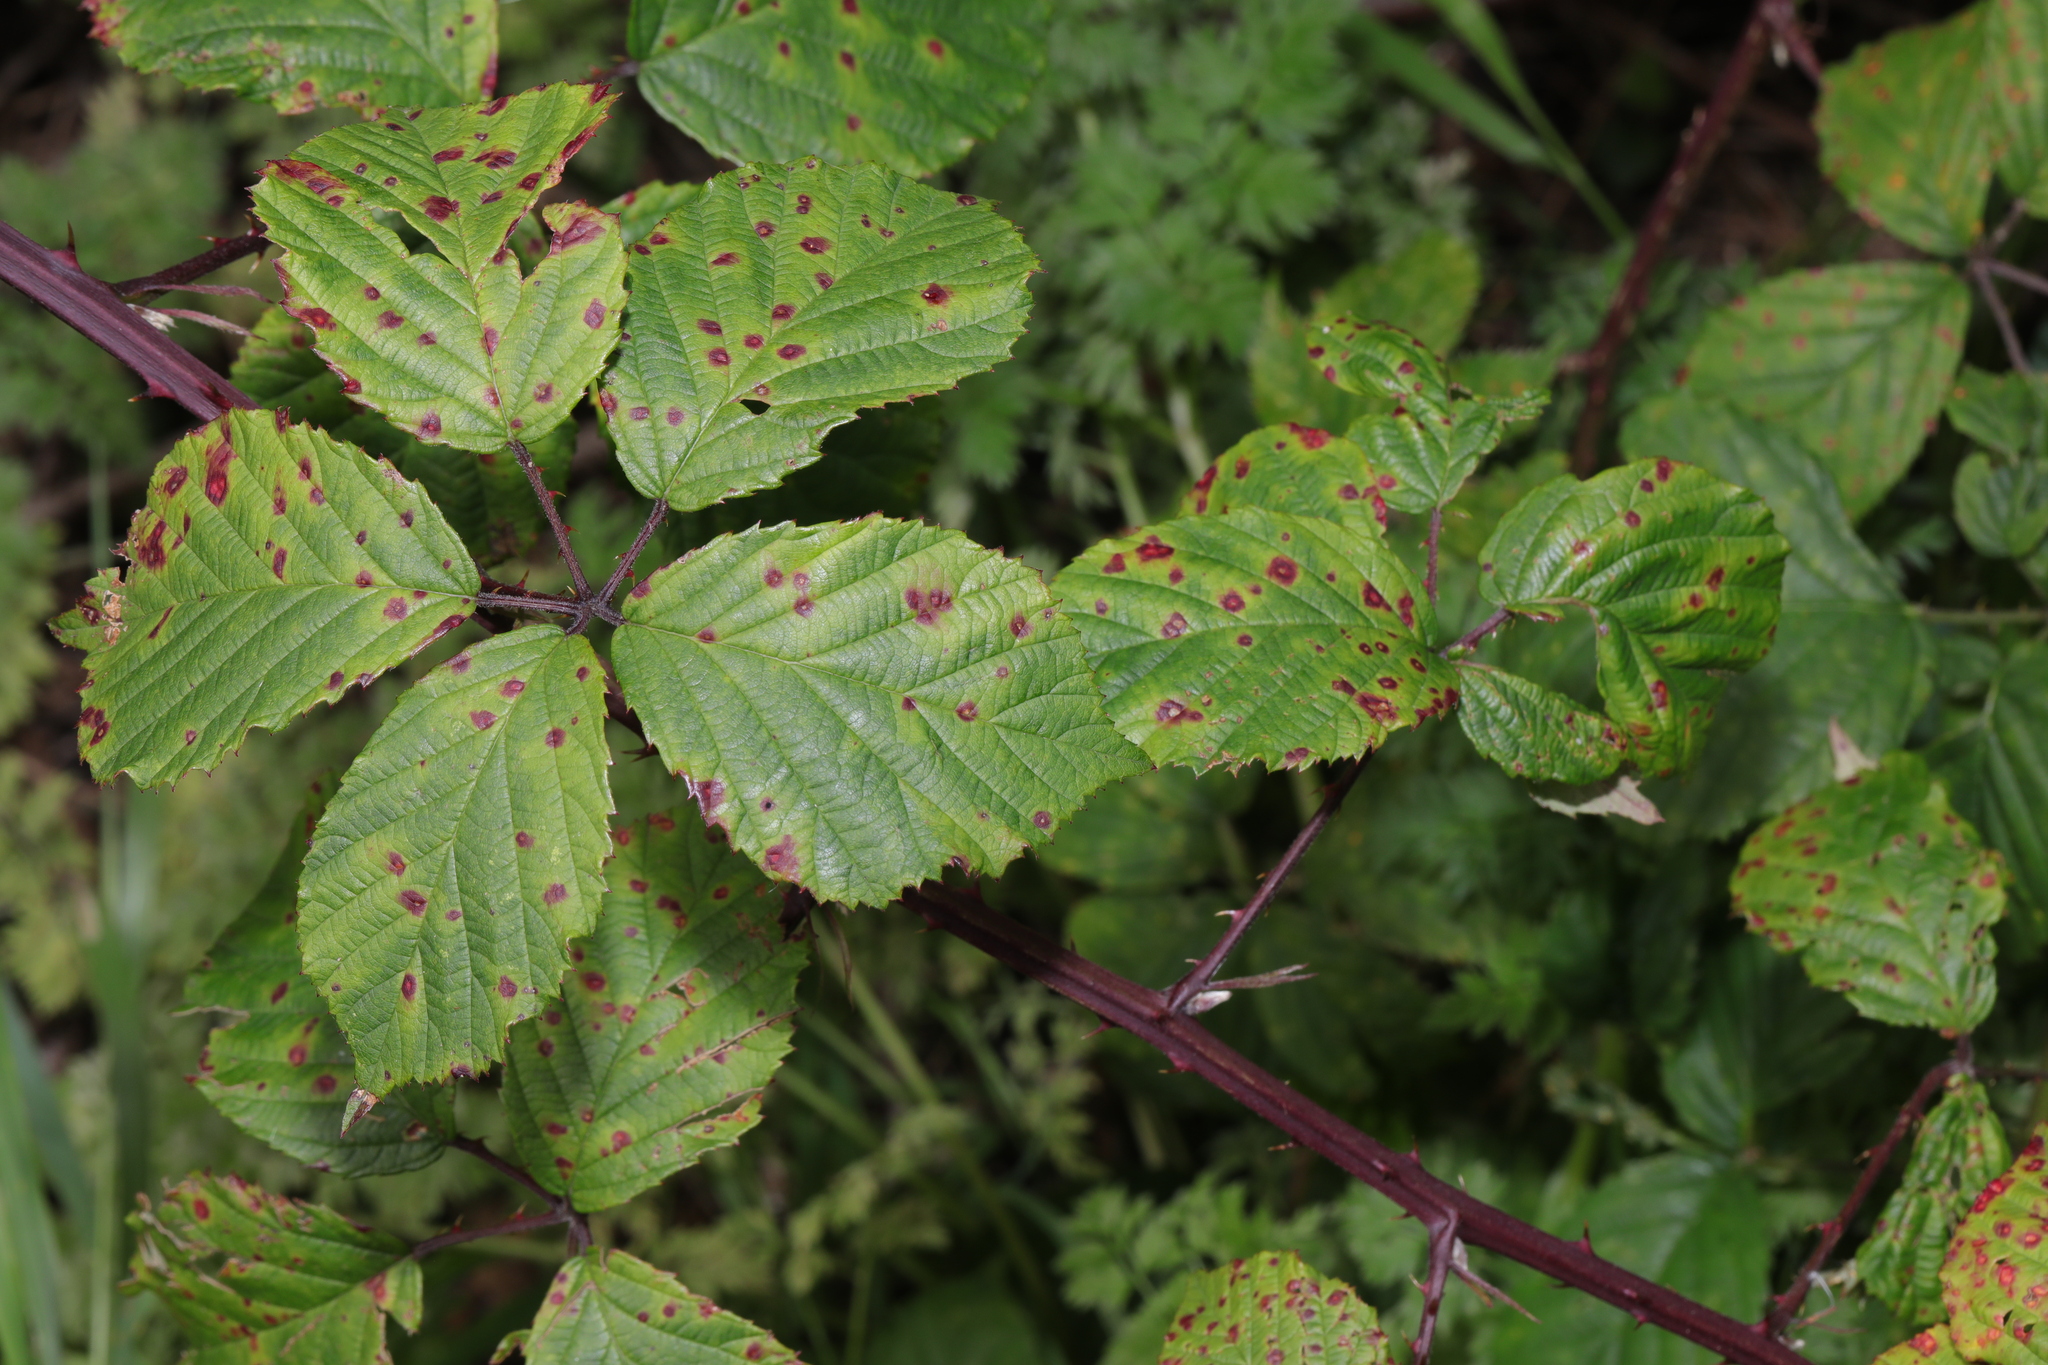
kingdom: Plantae
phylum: Tracheophyta
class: Magnoliopsida
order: Rosales
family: Rosaceae
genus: Rubus
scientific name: Rubus nemoralis
